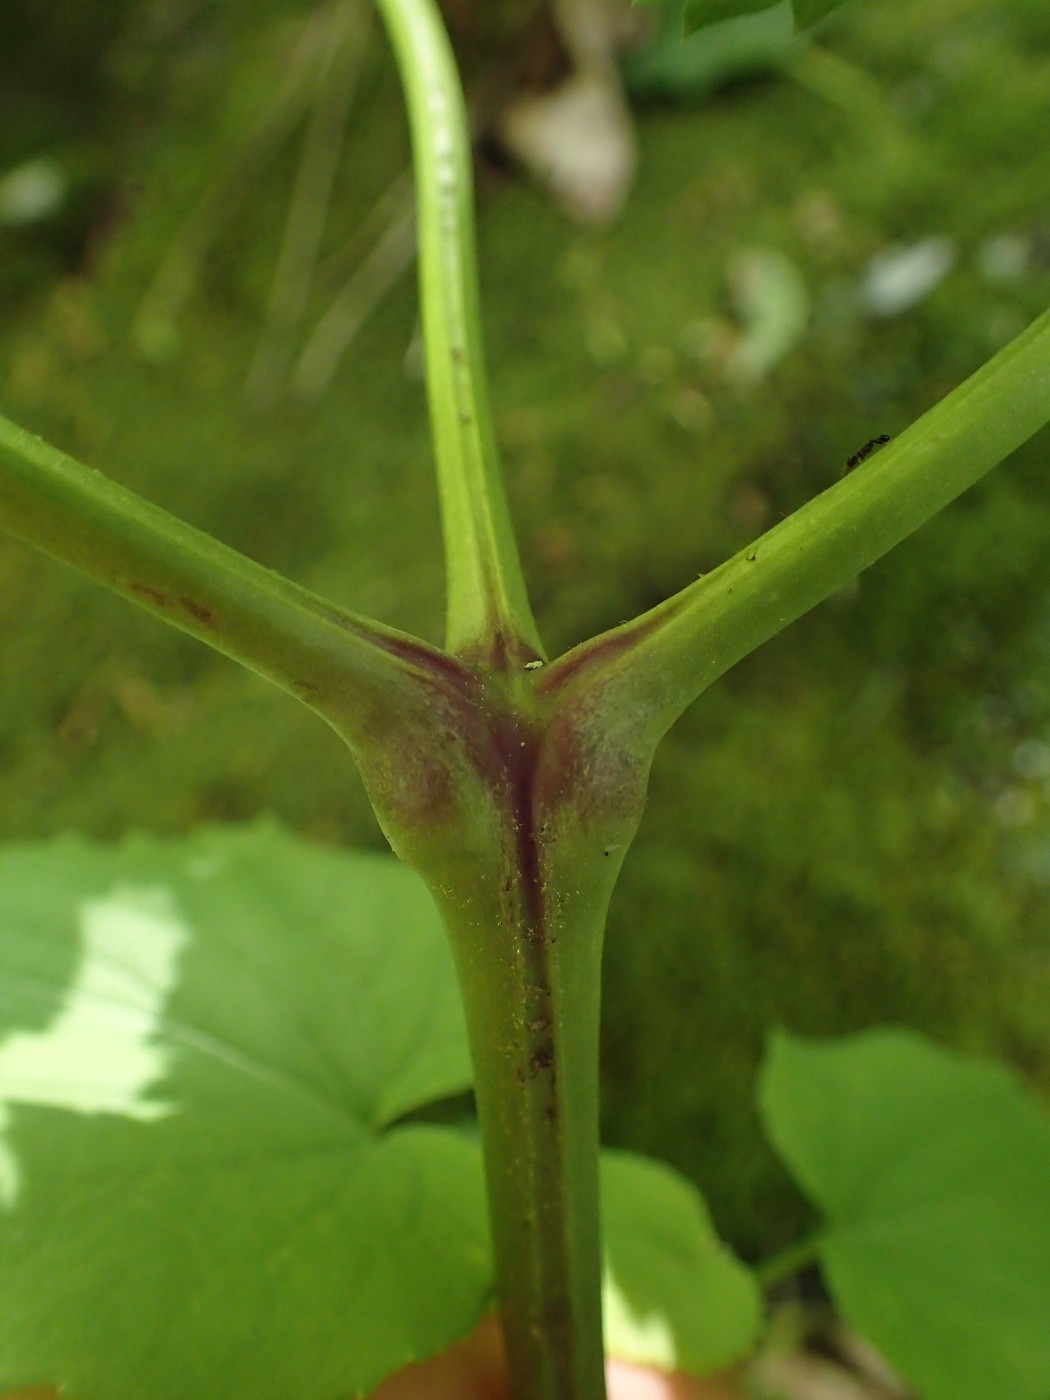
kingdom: Plantae
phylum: Tracheophyta
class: Magnoliopsida
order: Ranunculales
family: Ranunculaceae
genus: Actaea
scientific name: Actaea podocarpa
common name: American bugbane
